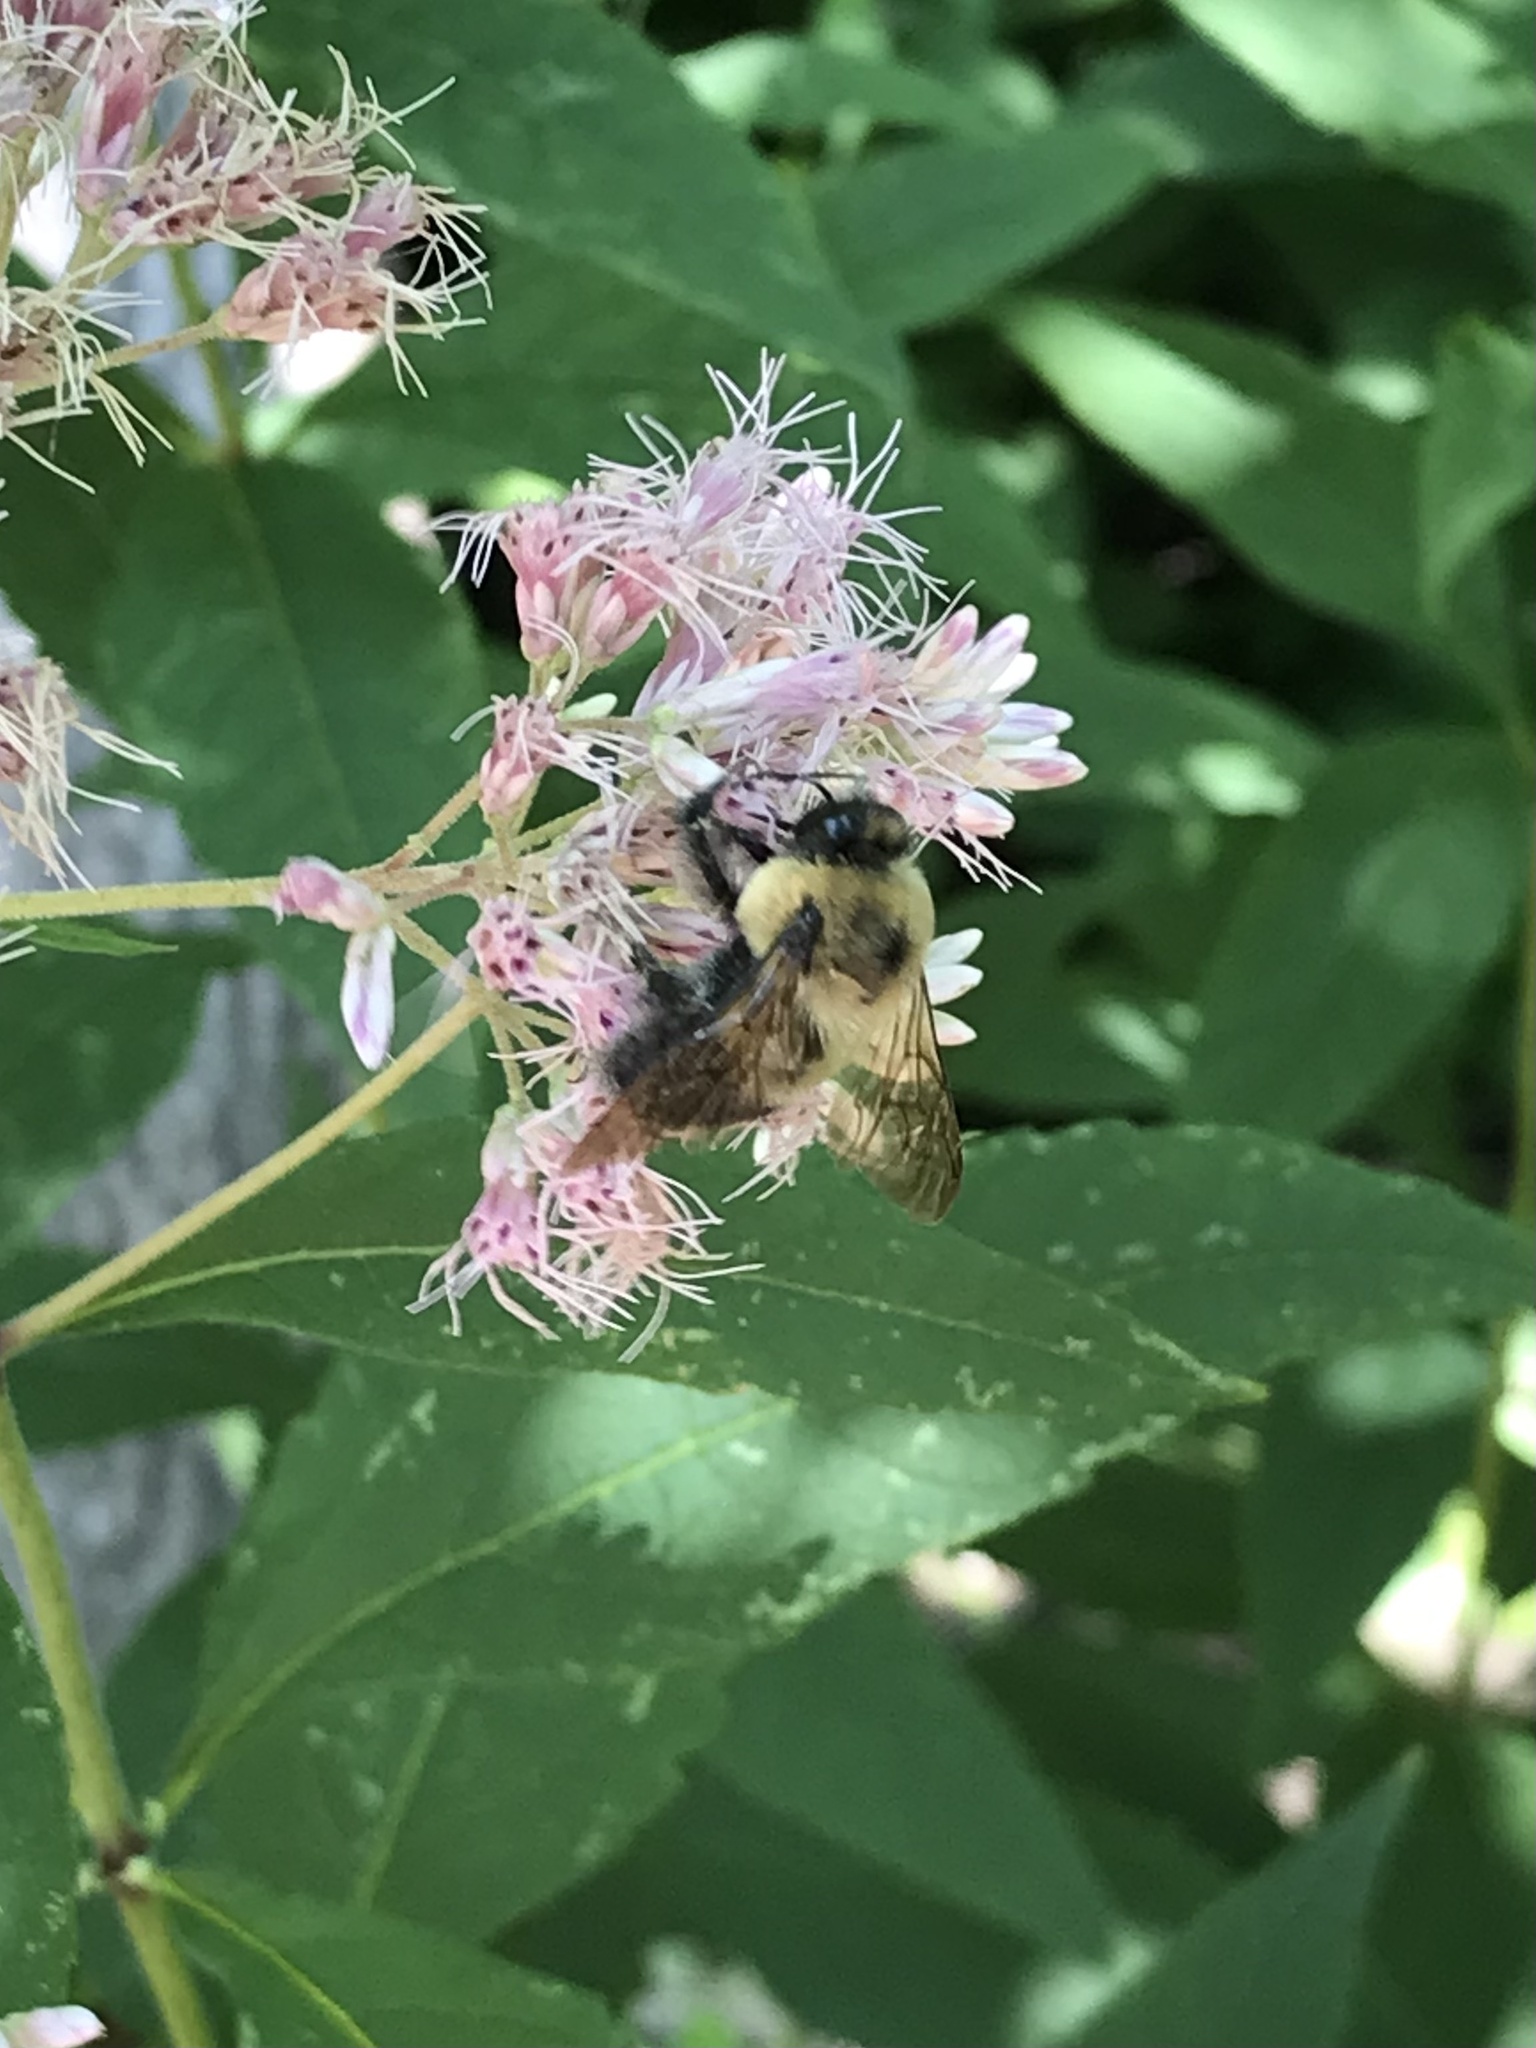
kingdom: Animalia
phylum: Arthropoda
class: Insecta
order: Hymenoptera
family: Apidae
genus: Bombus
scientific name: Bombus griseocollis
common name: Brown-belted bumble bee
